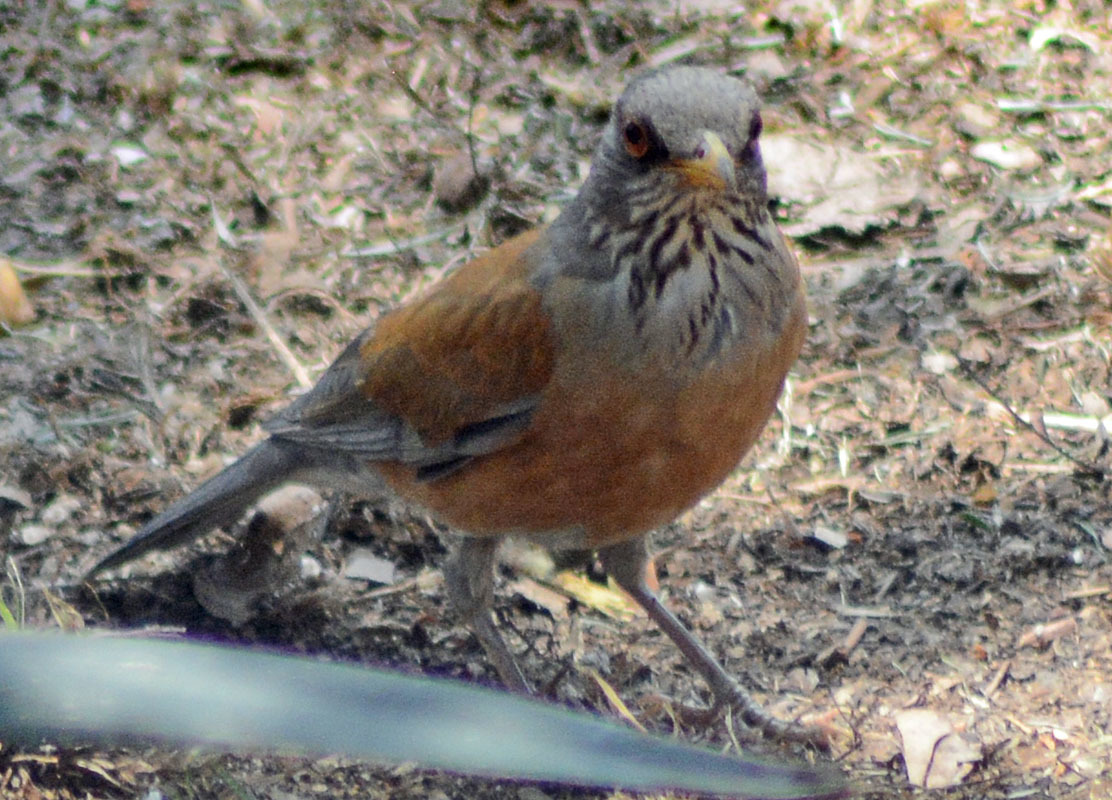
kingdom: Animalia
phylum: Chordata
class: Aves
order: Passeriformes
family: Turdidae
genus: Turdus
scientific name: Turdus rufopalliatus
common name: Rufous-backed robin
